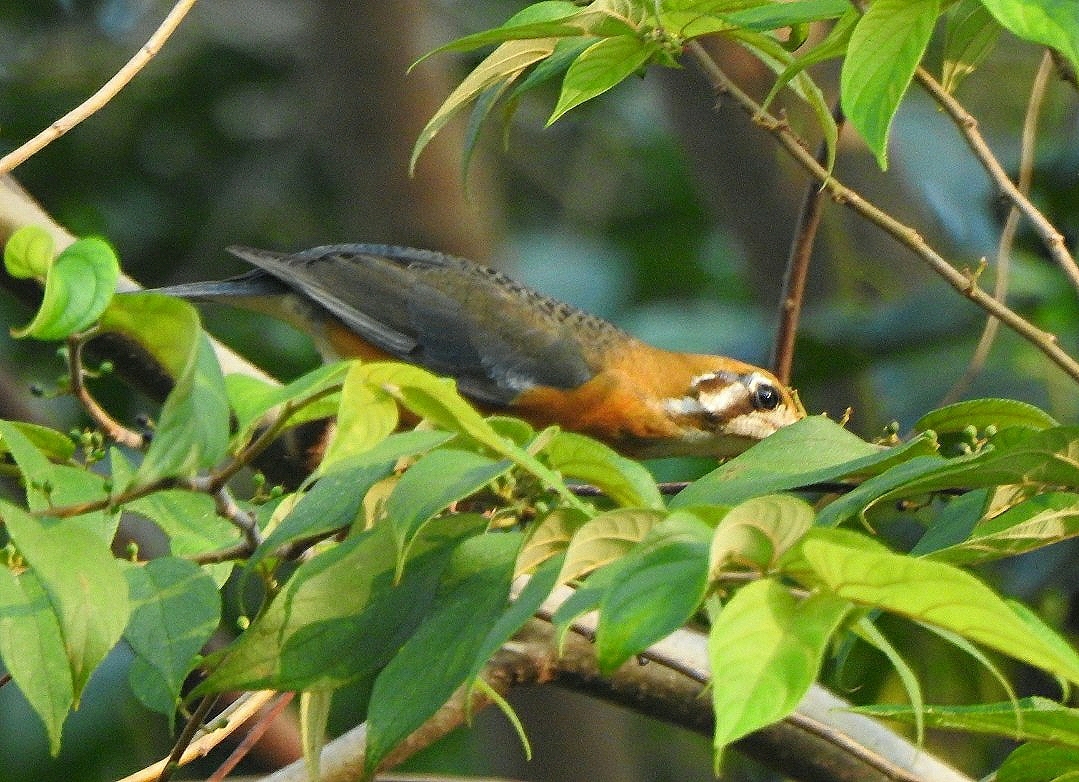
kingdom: Animalia
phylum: Chordata
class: Aves
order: Passeriformes
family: Turdidae
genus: Geokichla
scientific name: Geokichla citrina
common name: Orange-headed thrush
